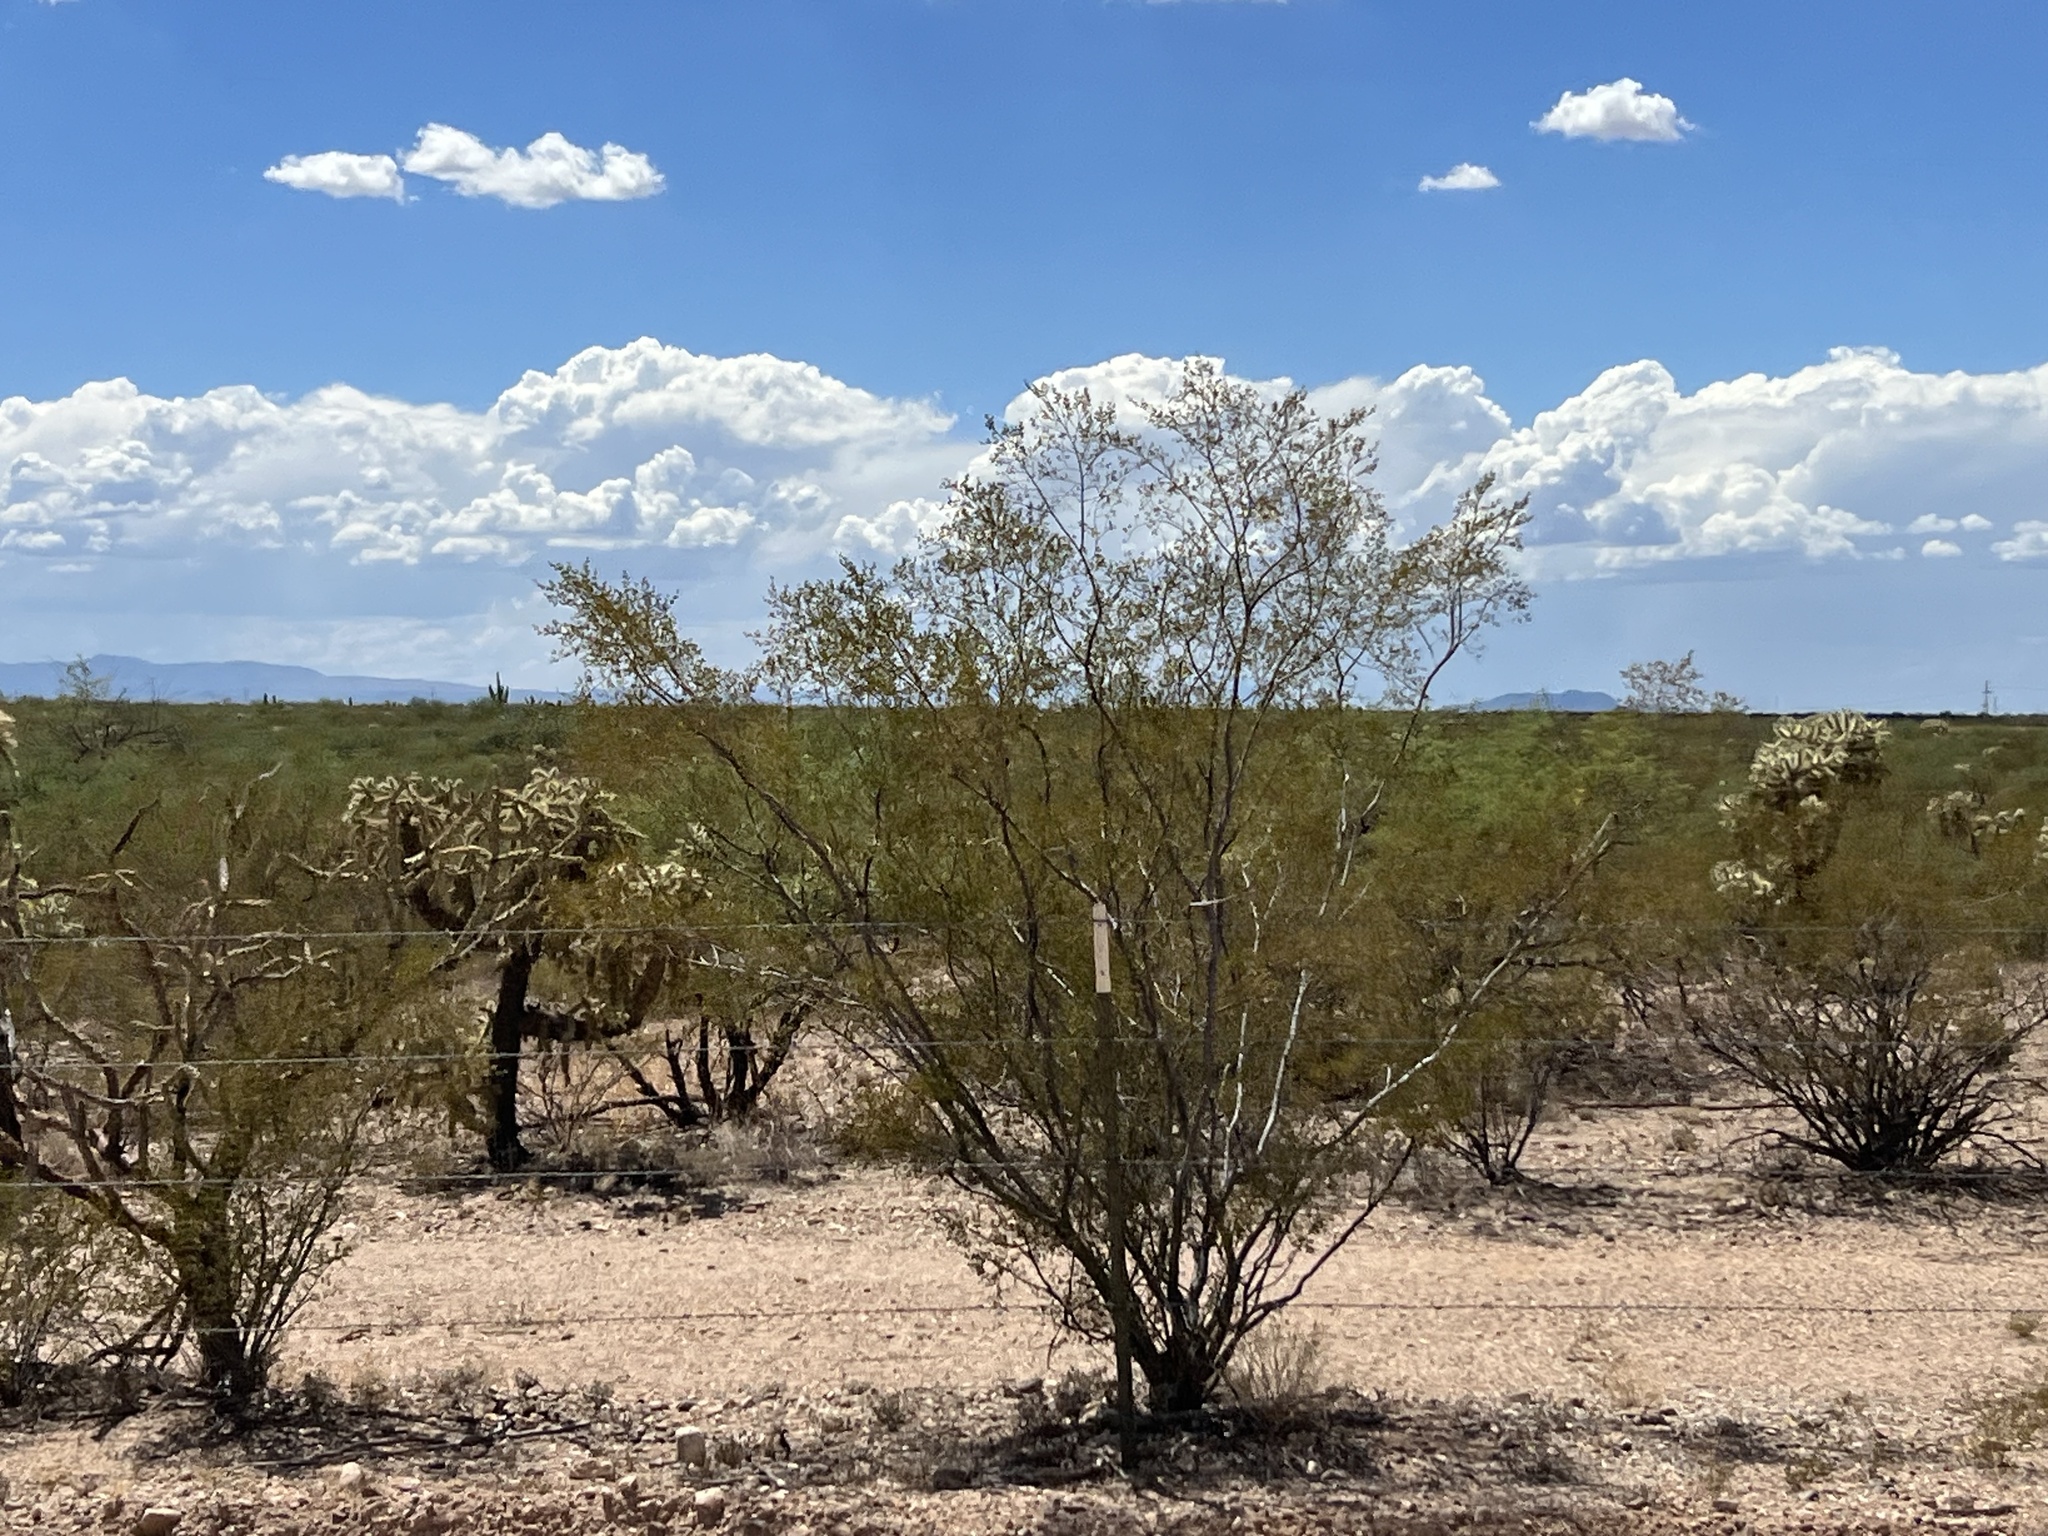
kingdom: Plantae
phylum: Tracheophyta
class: Magnoliopsida
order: Zygophyllales
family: Zygophyllaceae
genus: Larrea
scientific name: Larrea tridentata
